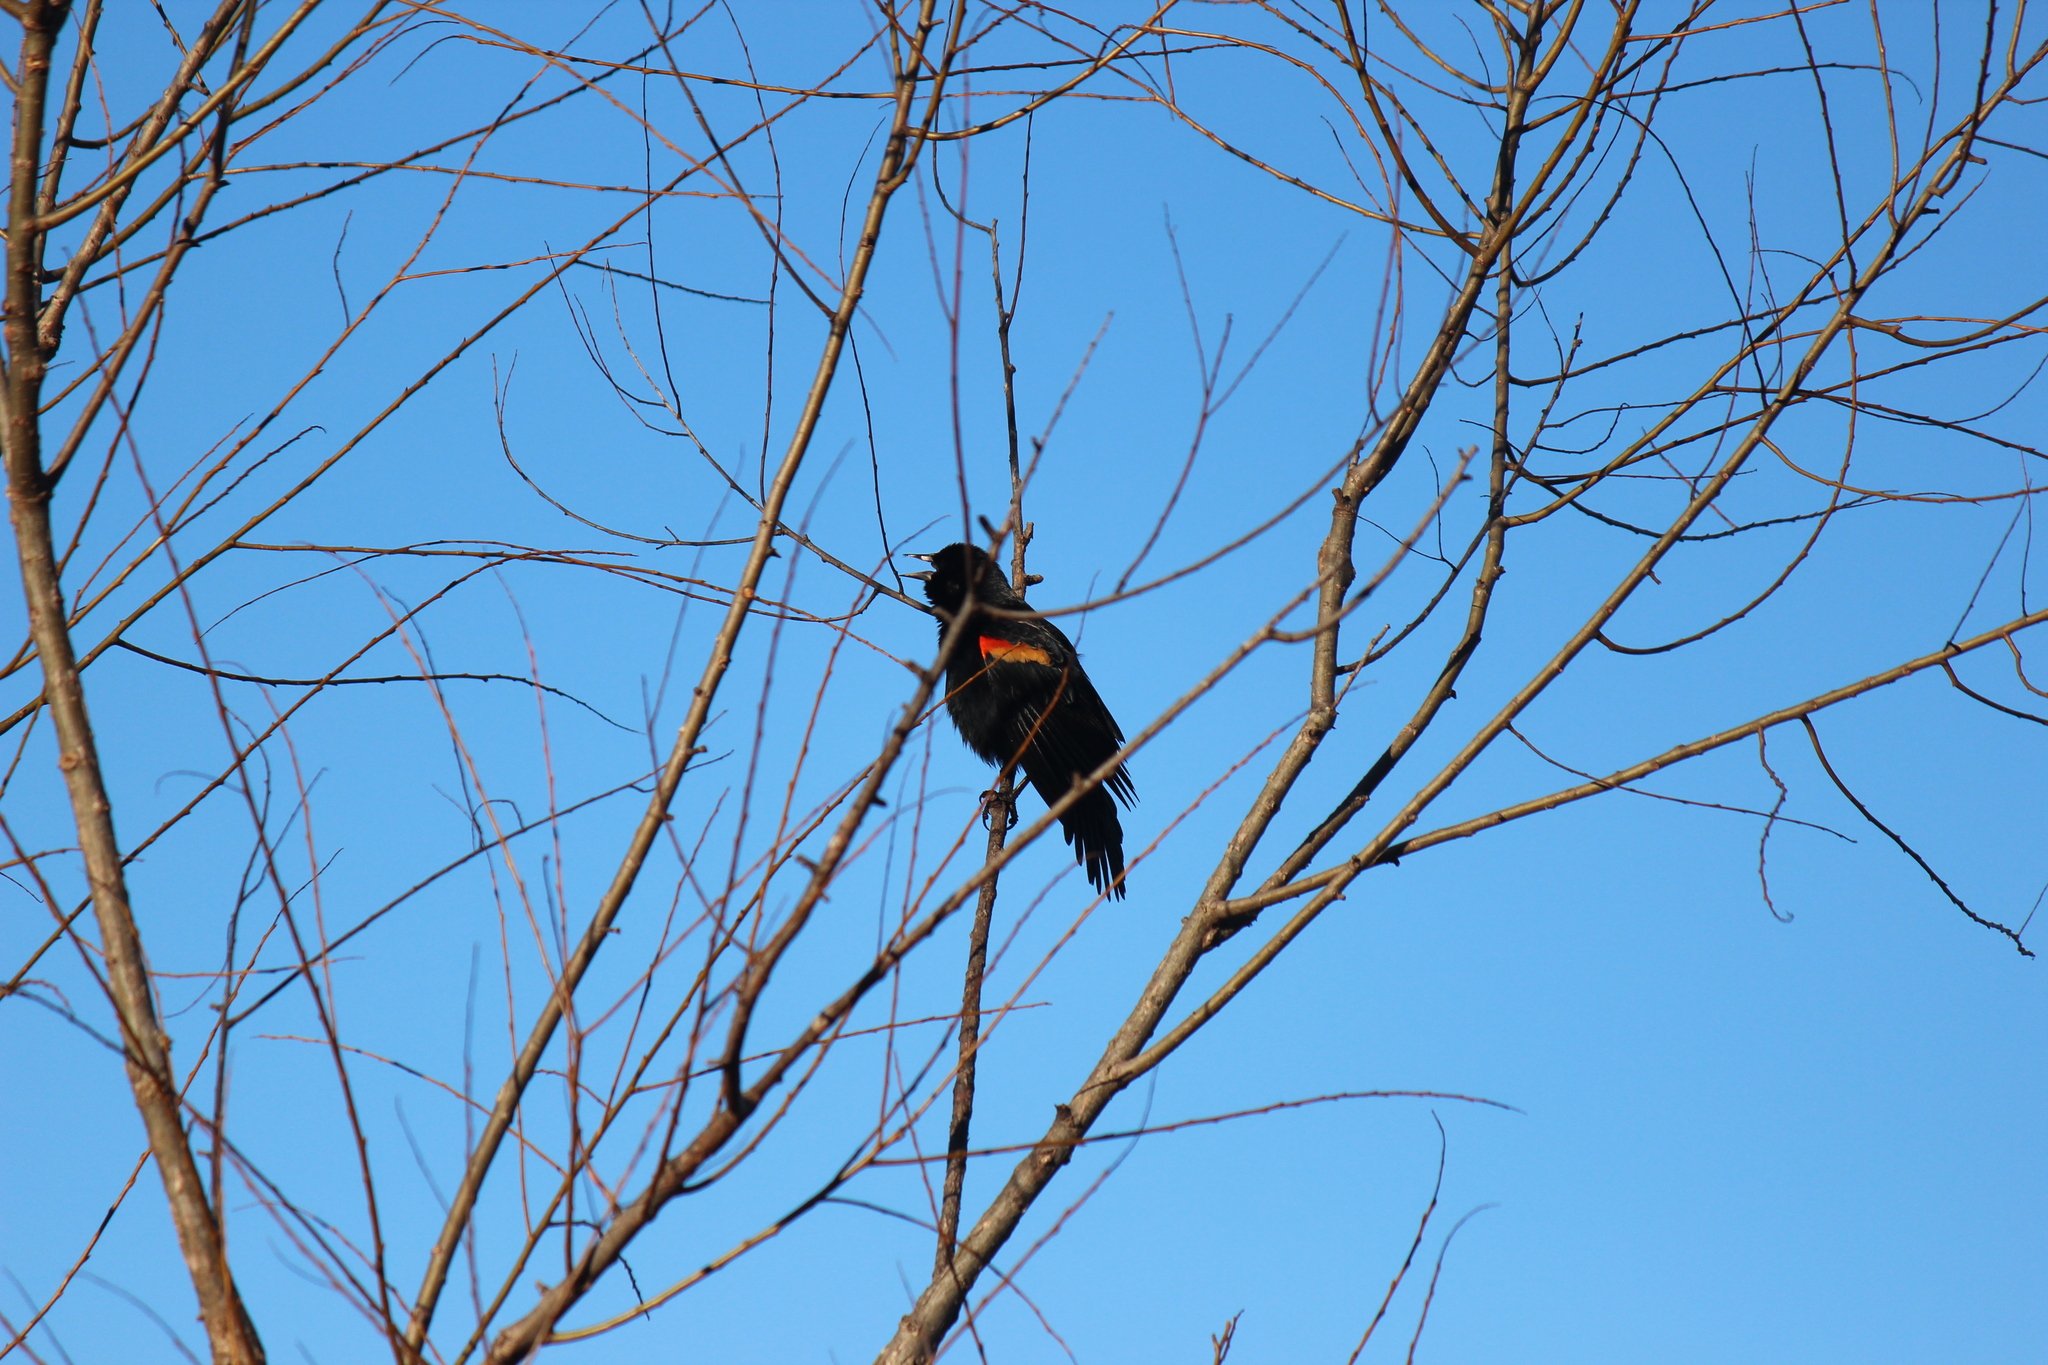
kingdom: Animalia
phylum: Chordata
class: Aves
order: Passeriformes
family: Icteridae
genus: Agelaius
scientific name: Agelaius phoeniceus
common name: Red-winged blackbird
